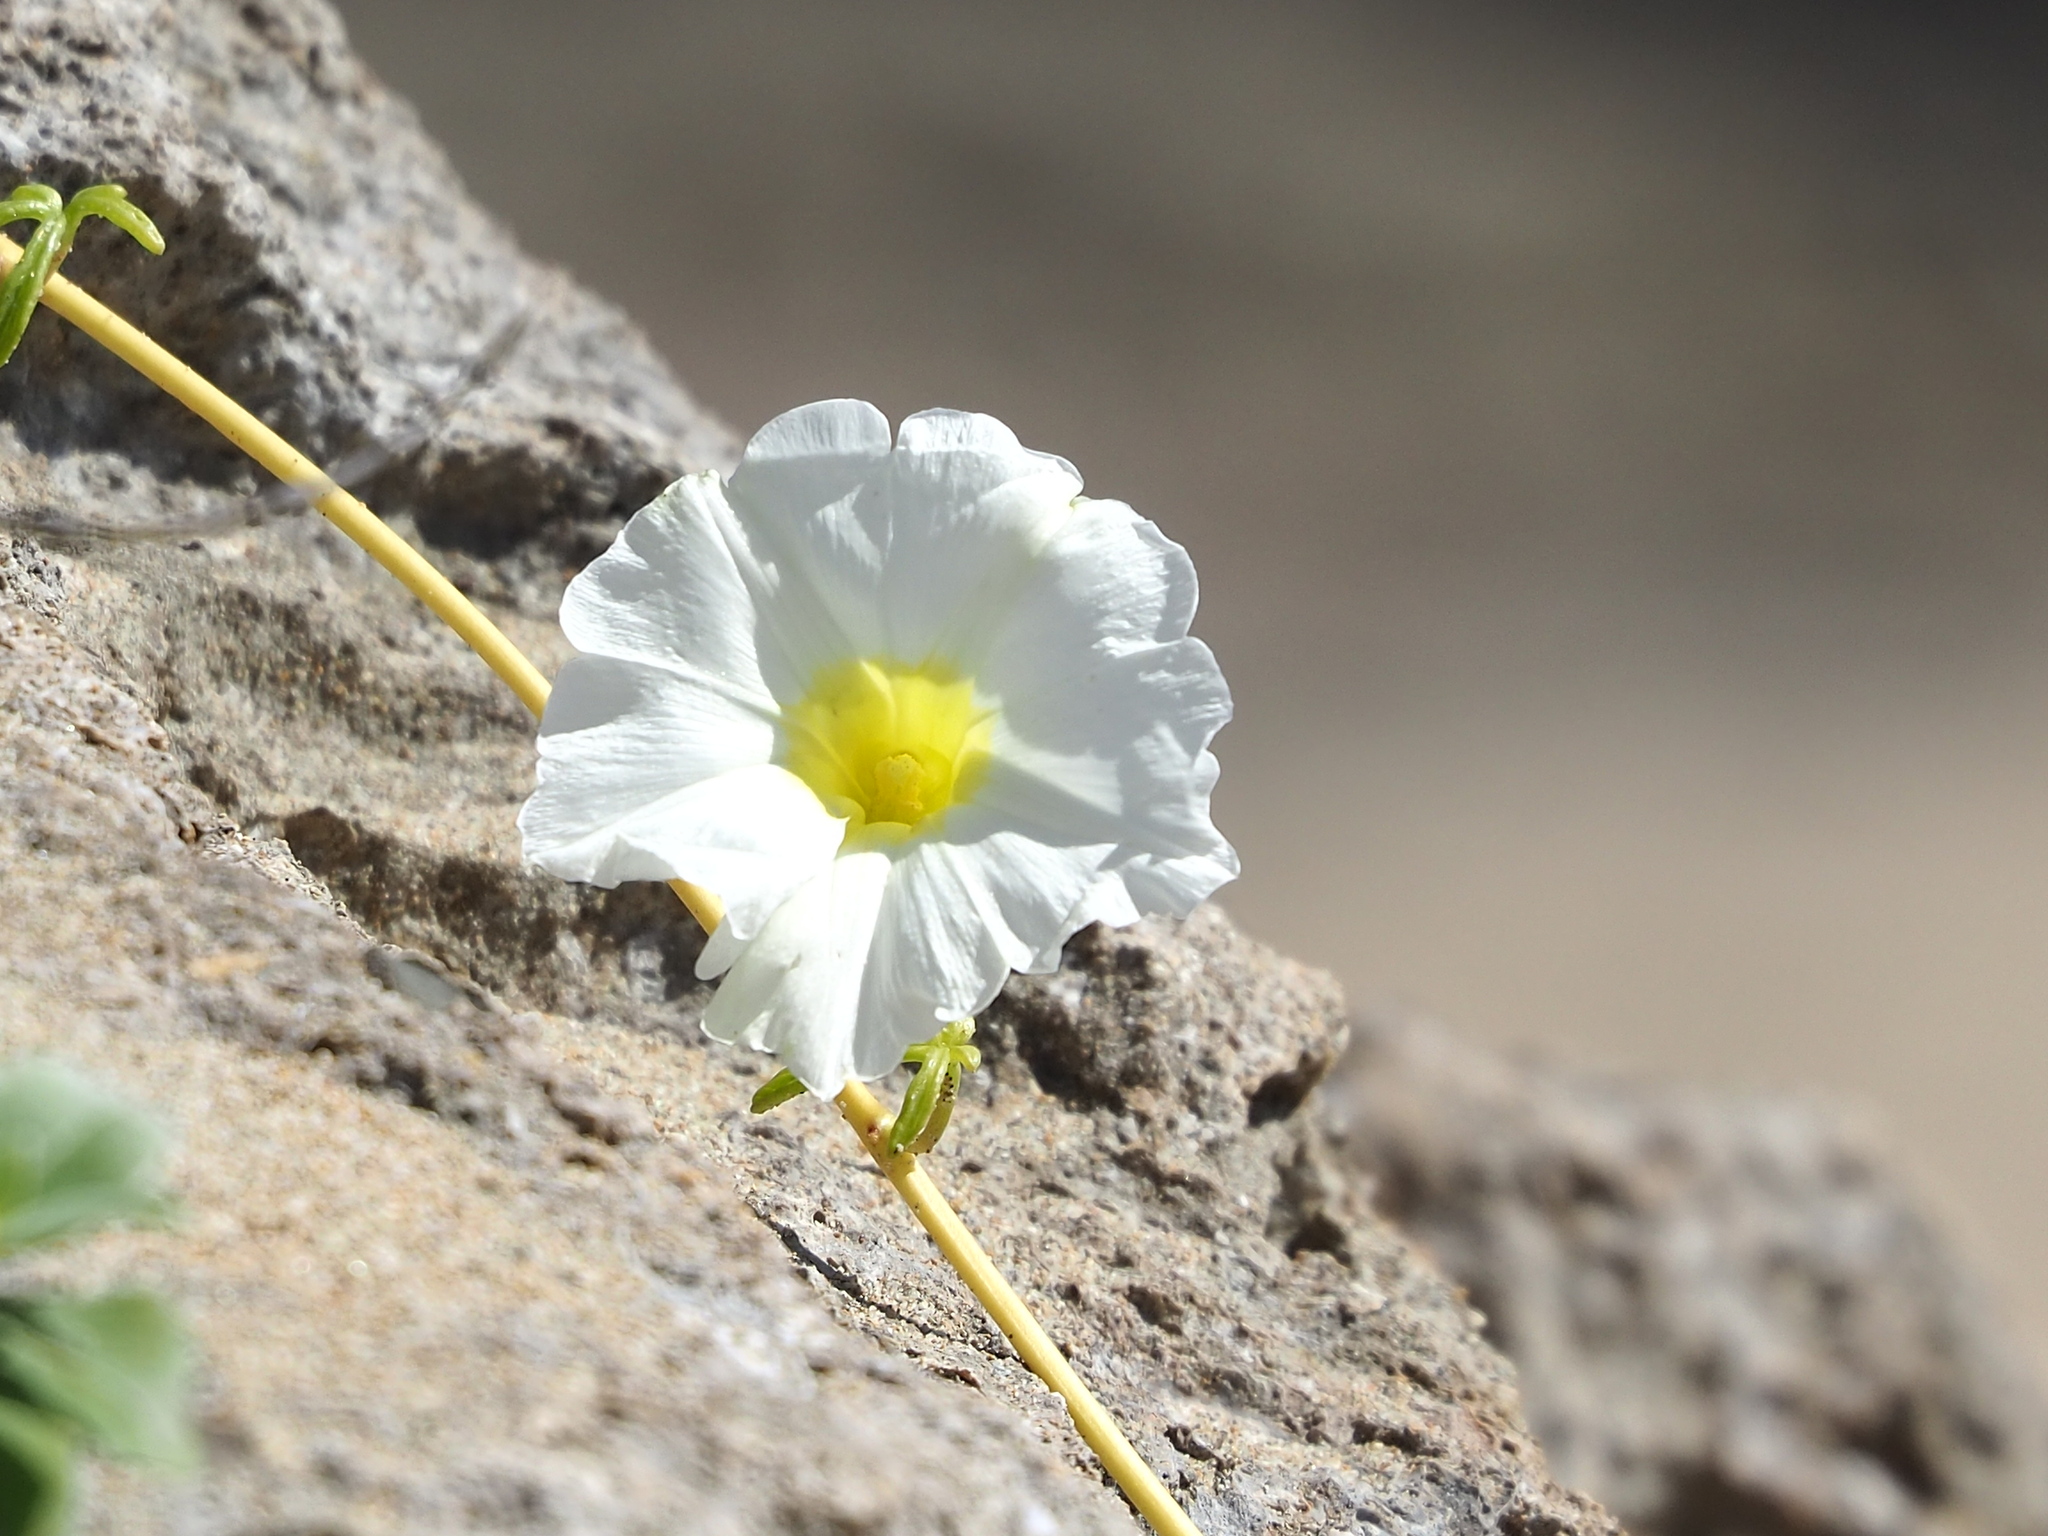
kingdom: Plantae
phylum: Tracheophyta
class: Magnoliopsida
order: Solanales
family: Convolvulaceae
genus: Ipomoea
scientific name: Ipomoea imperati
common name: Fiddle-leaf morning-glory
